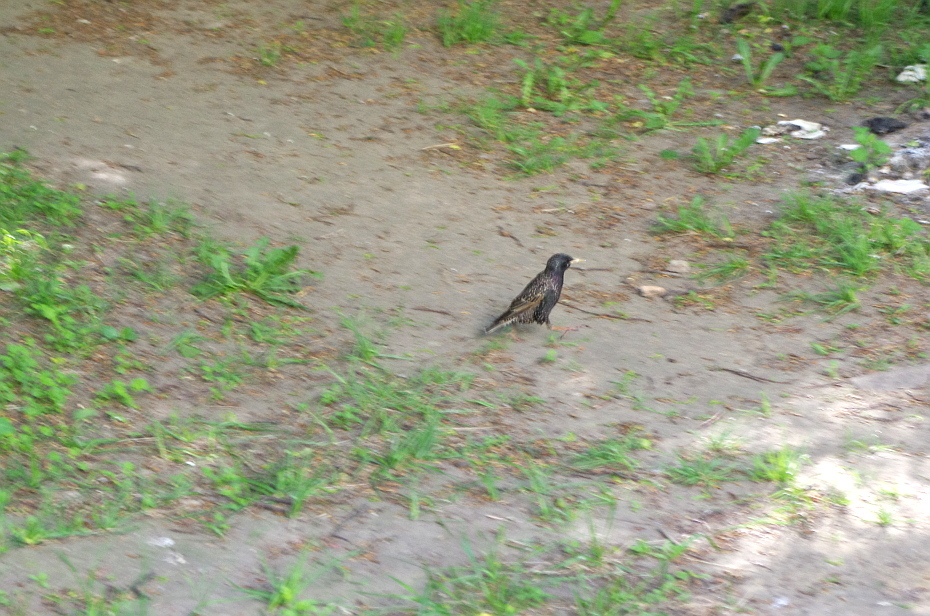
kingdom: Animalia
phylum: Chordata
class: Aves
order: Passeriformes
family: Sturnidae
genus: Sturnus
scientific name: Sturnus vulgaris
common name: Common starling
